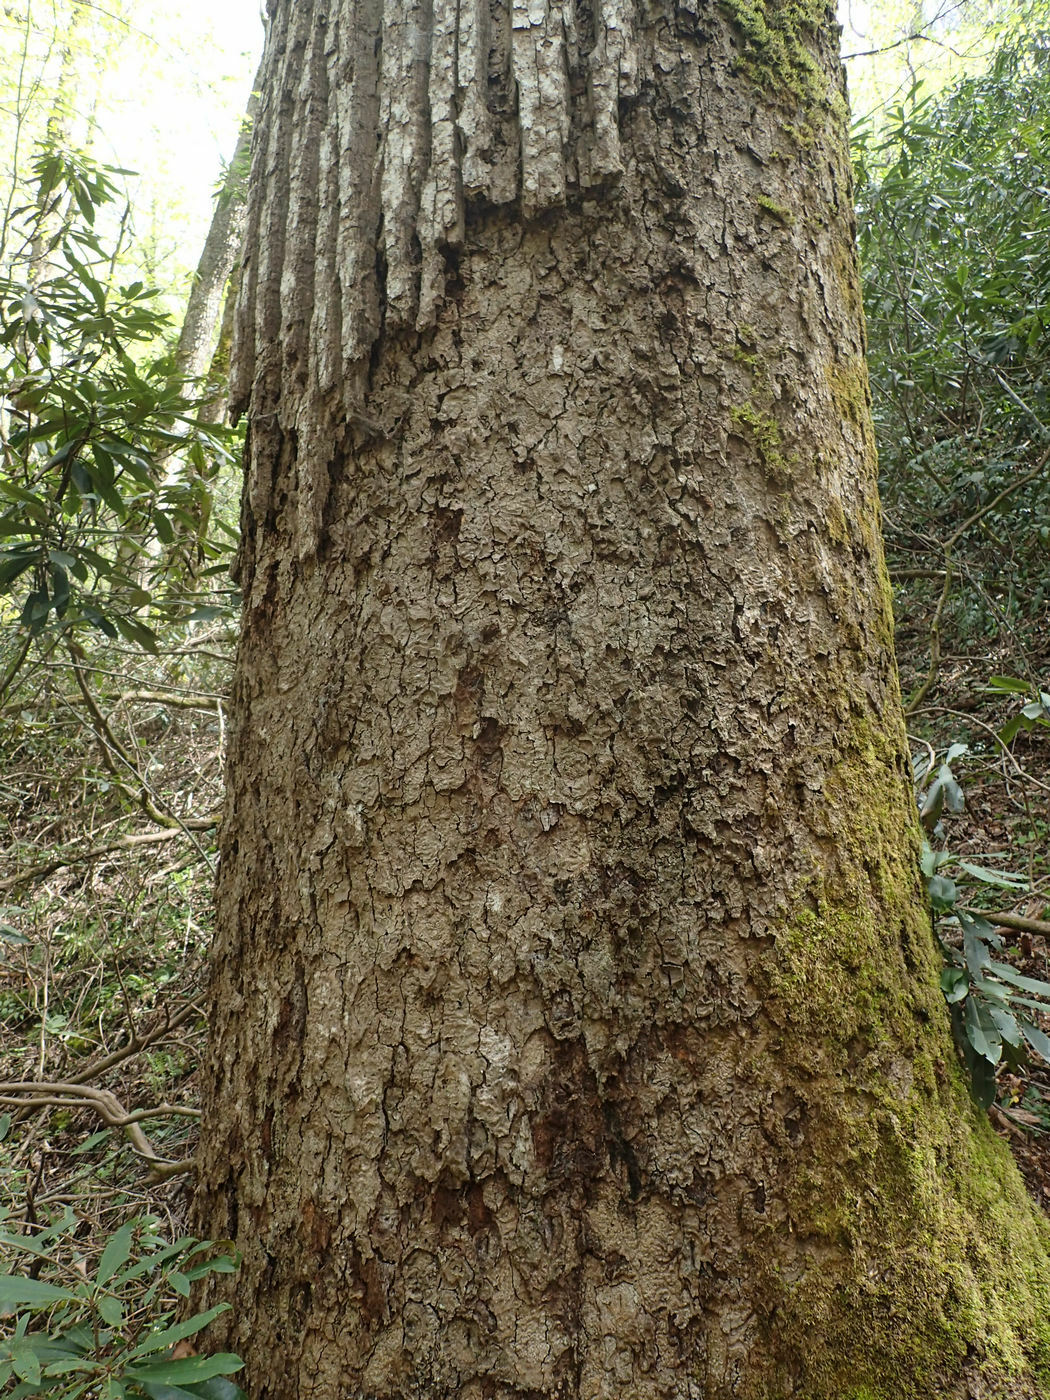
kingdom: Plantae
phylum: Tracheophyta
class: Magnoliopsida
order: Magnoliales
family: Magnoliaceae
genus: Liriodendron
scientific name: Liriodendron tulipifera
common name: Tulip tree
